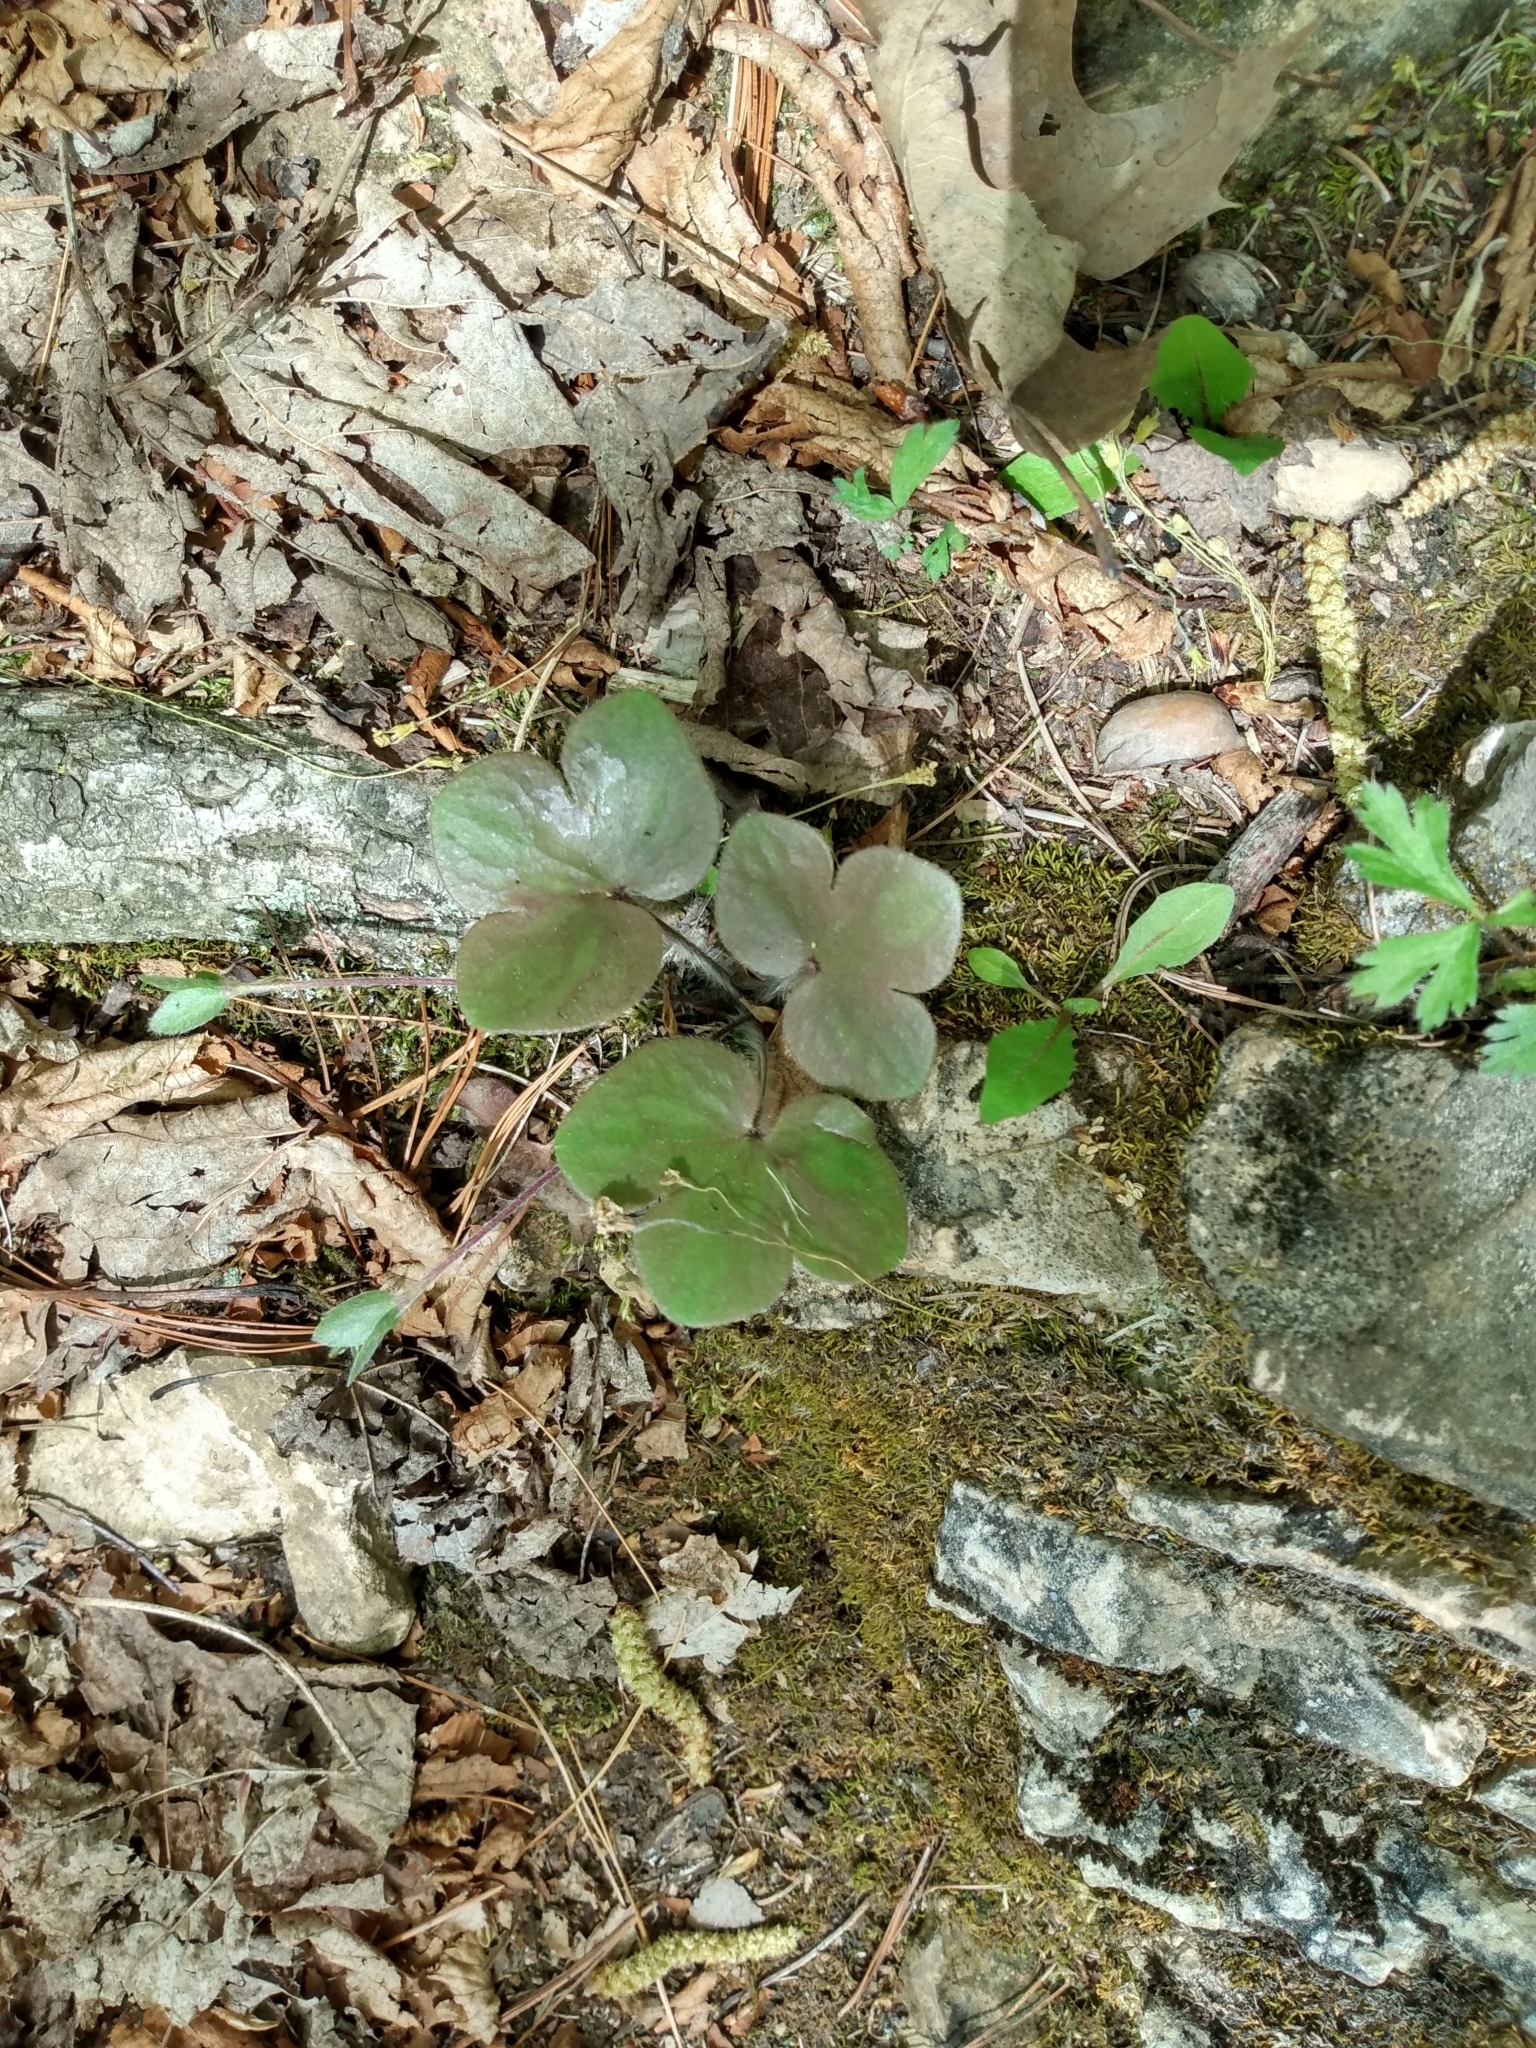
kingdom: Plantae
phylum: Tracheophyta
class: Magnoliopsida
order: Ranunculales
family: Ranunculaceae
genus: Hepatica
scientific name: Hepatica americana
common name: American hepatica
